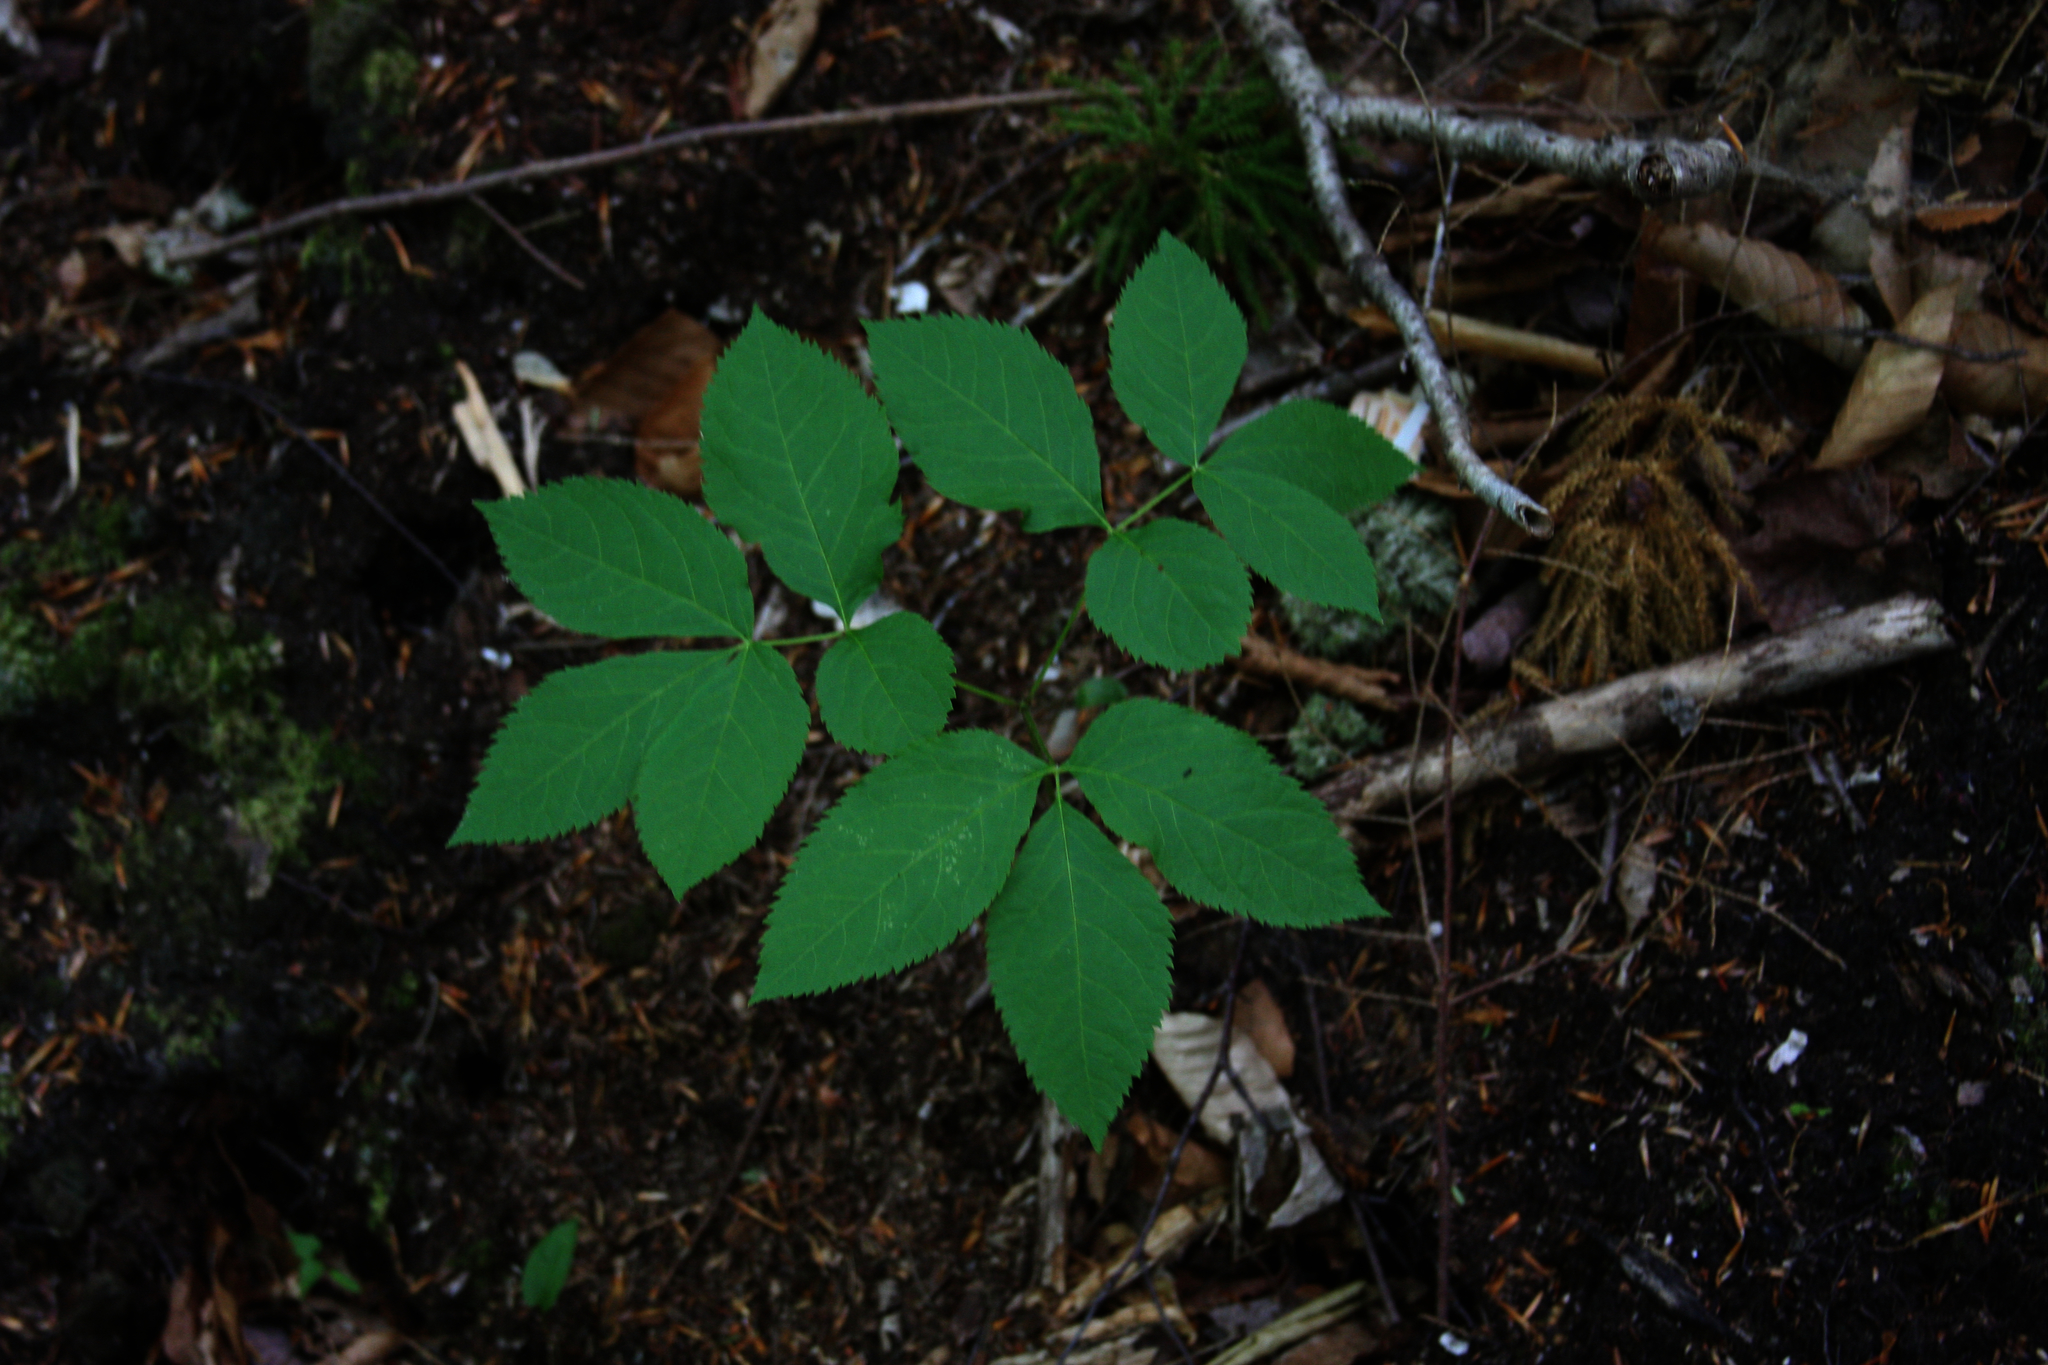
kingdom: Plantae
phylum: Tracheophyta
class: Magnoliopsida
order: Apiales
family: Araliaceae
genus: Aralia
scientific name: Aralia nudicaulis
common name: Wild sarsaparilla
